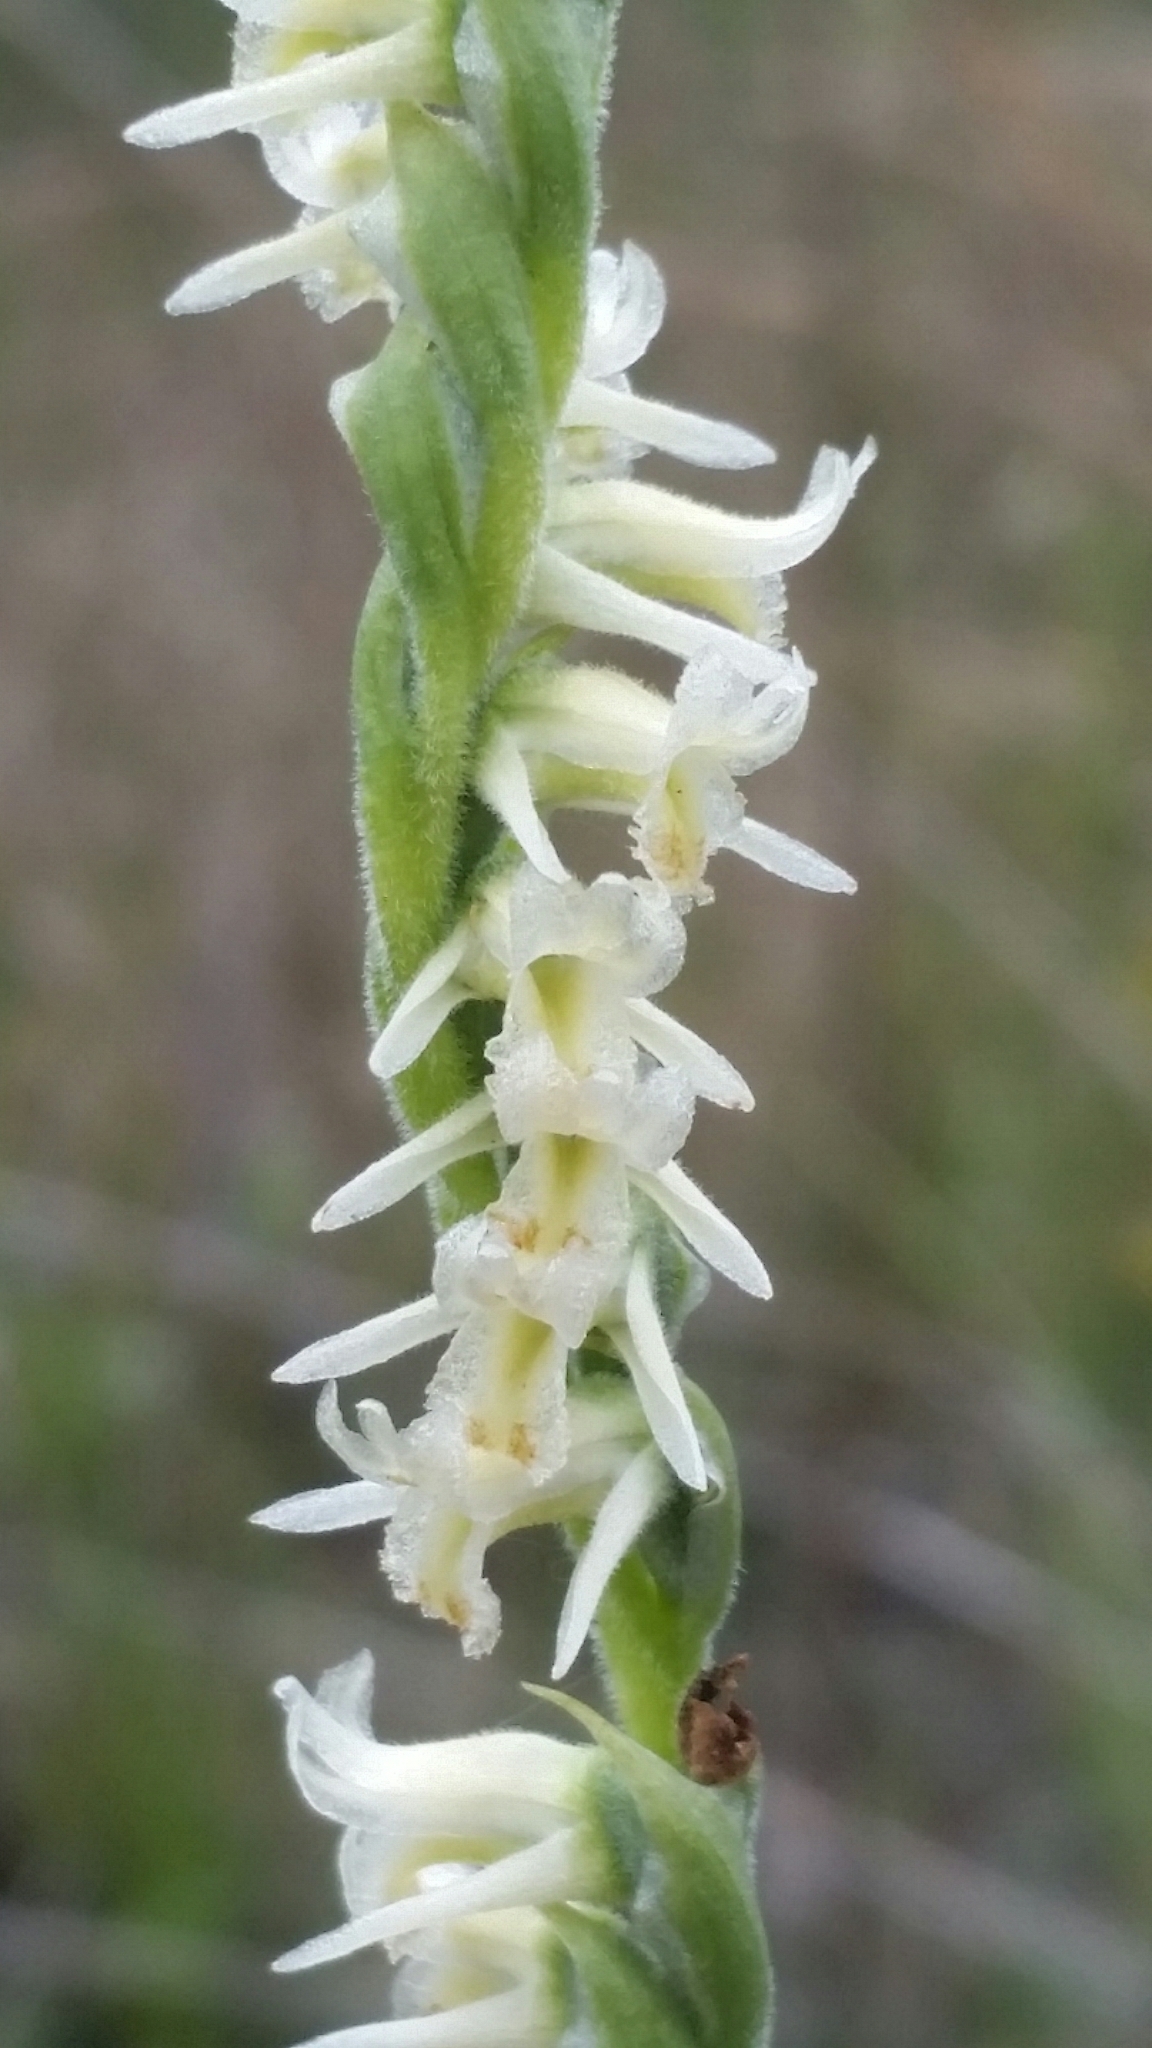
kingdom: Plantae
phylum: Tracheophyta
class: Liliopsida
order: Asparagales
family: Orchidaceae
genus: Spiranthes
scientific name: Spiranthes vernalis
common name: Spring ladies'-tresses
